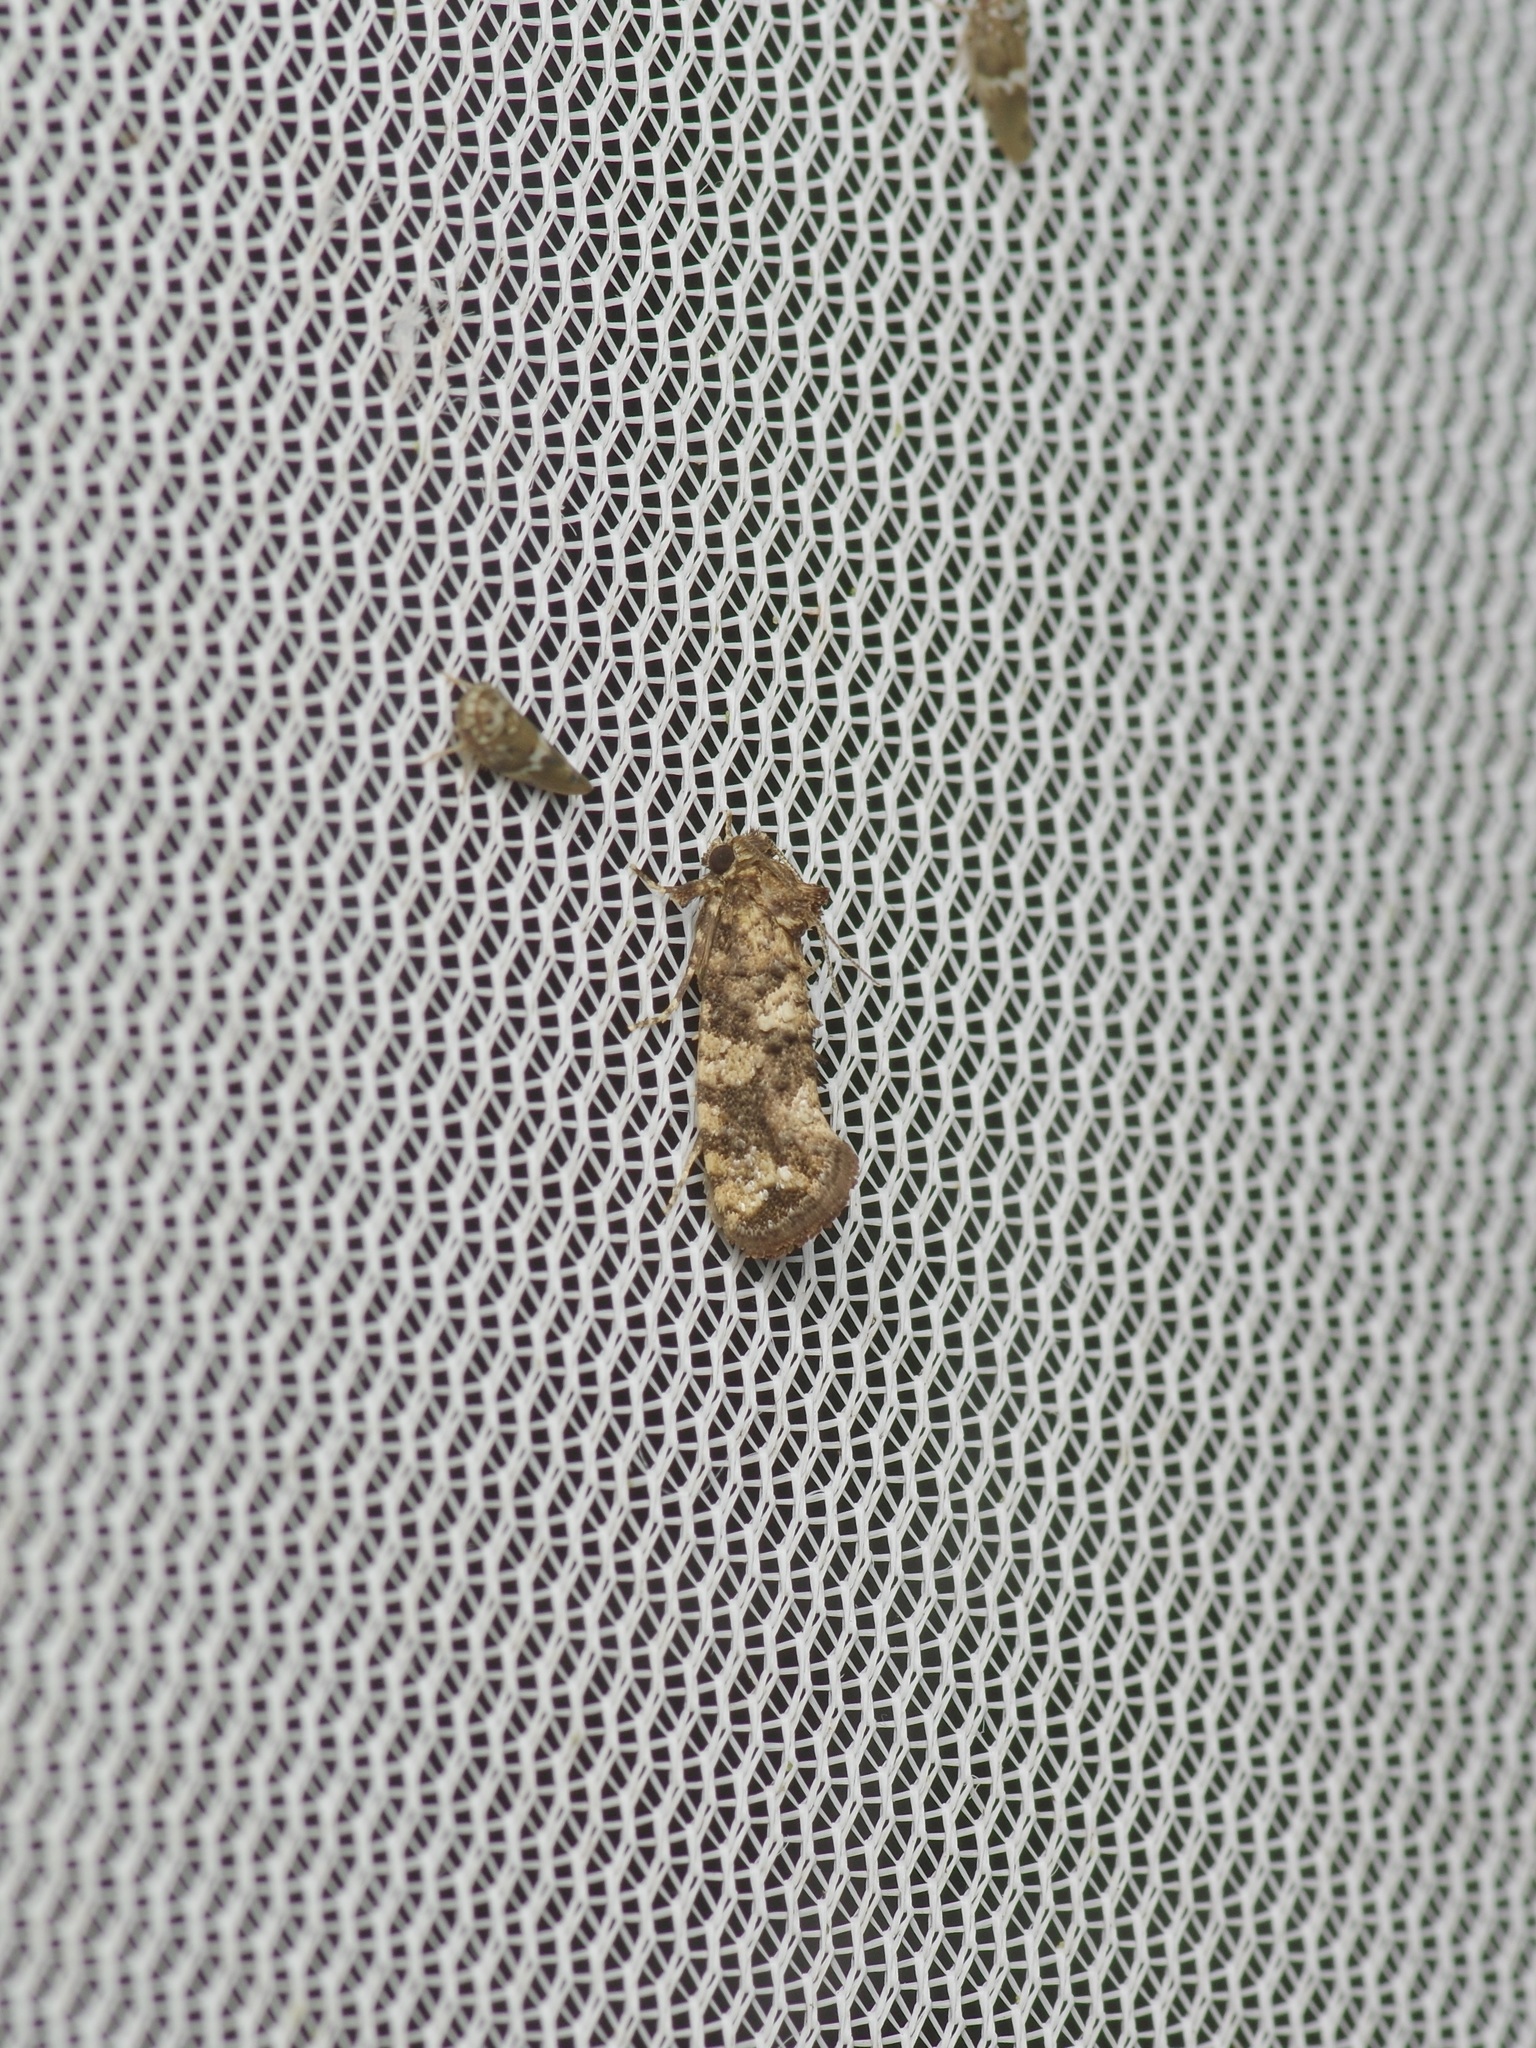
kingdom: Animalia
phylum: Arthropoda
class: Insecta
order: Lepidoptera
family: Tineidae
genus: Acrolophus
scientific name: Acrolophus cressoni
